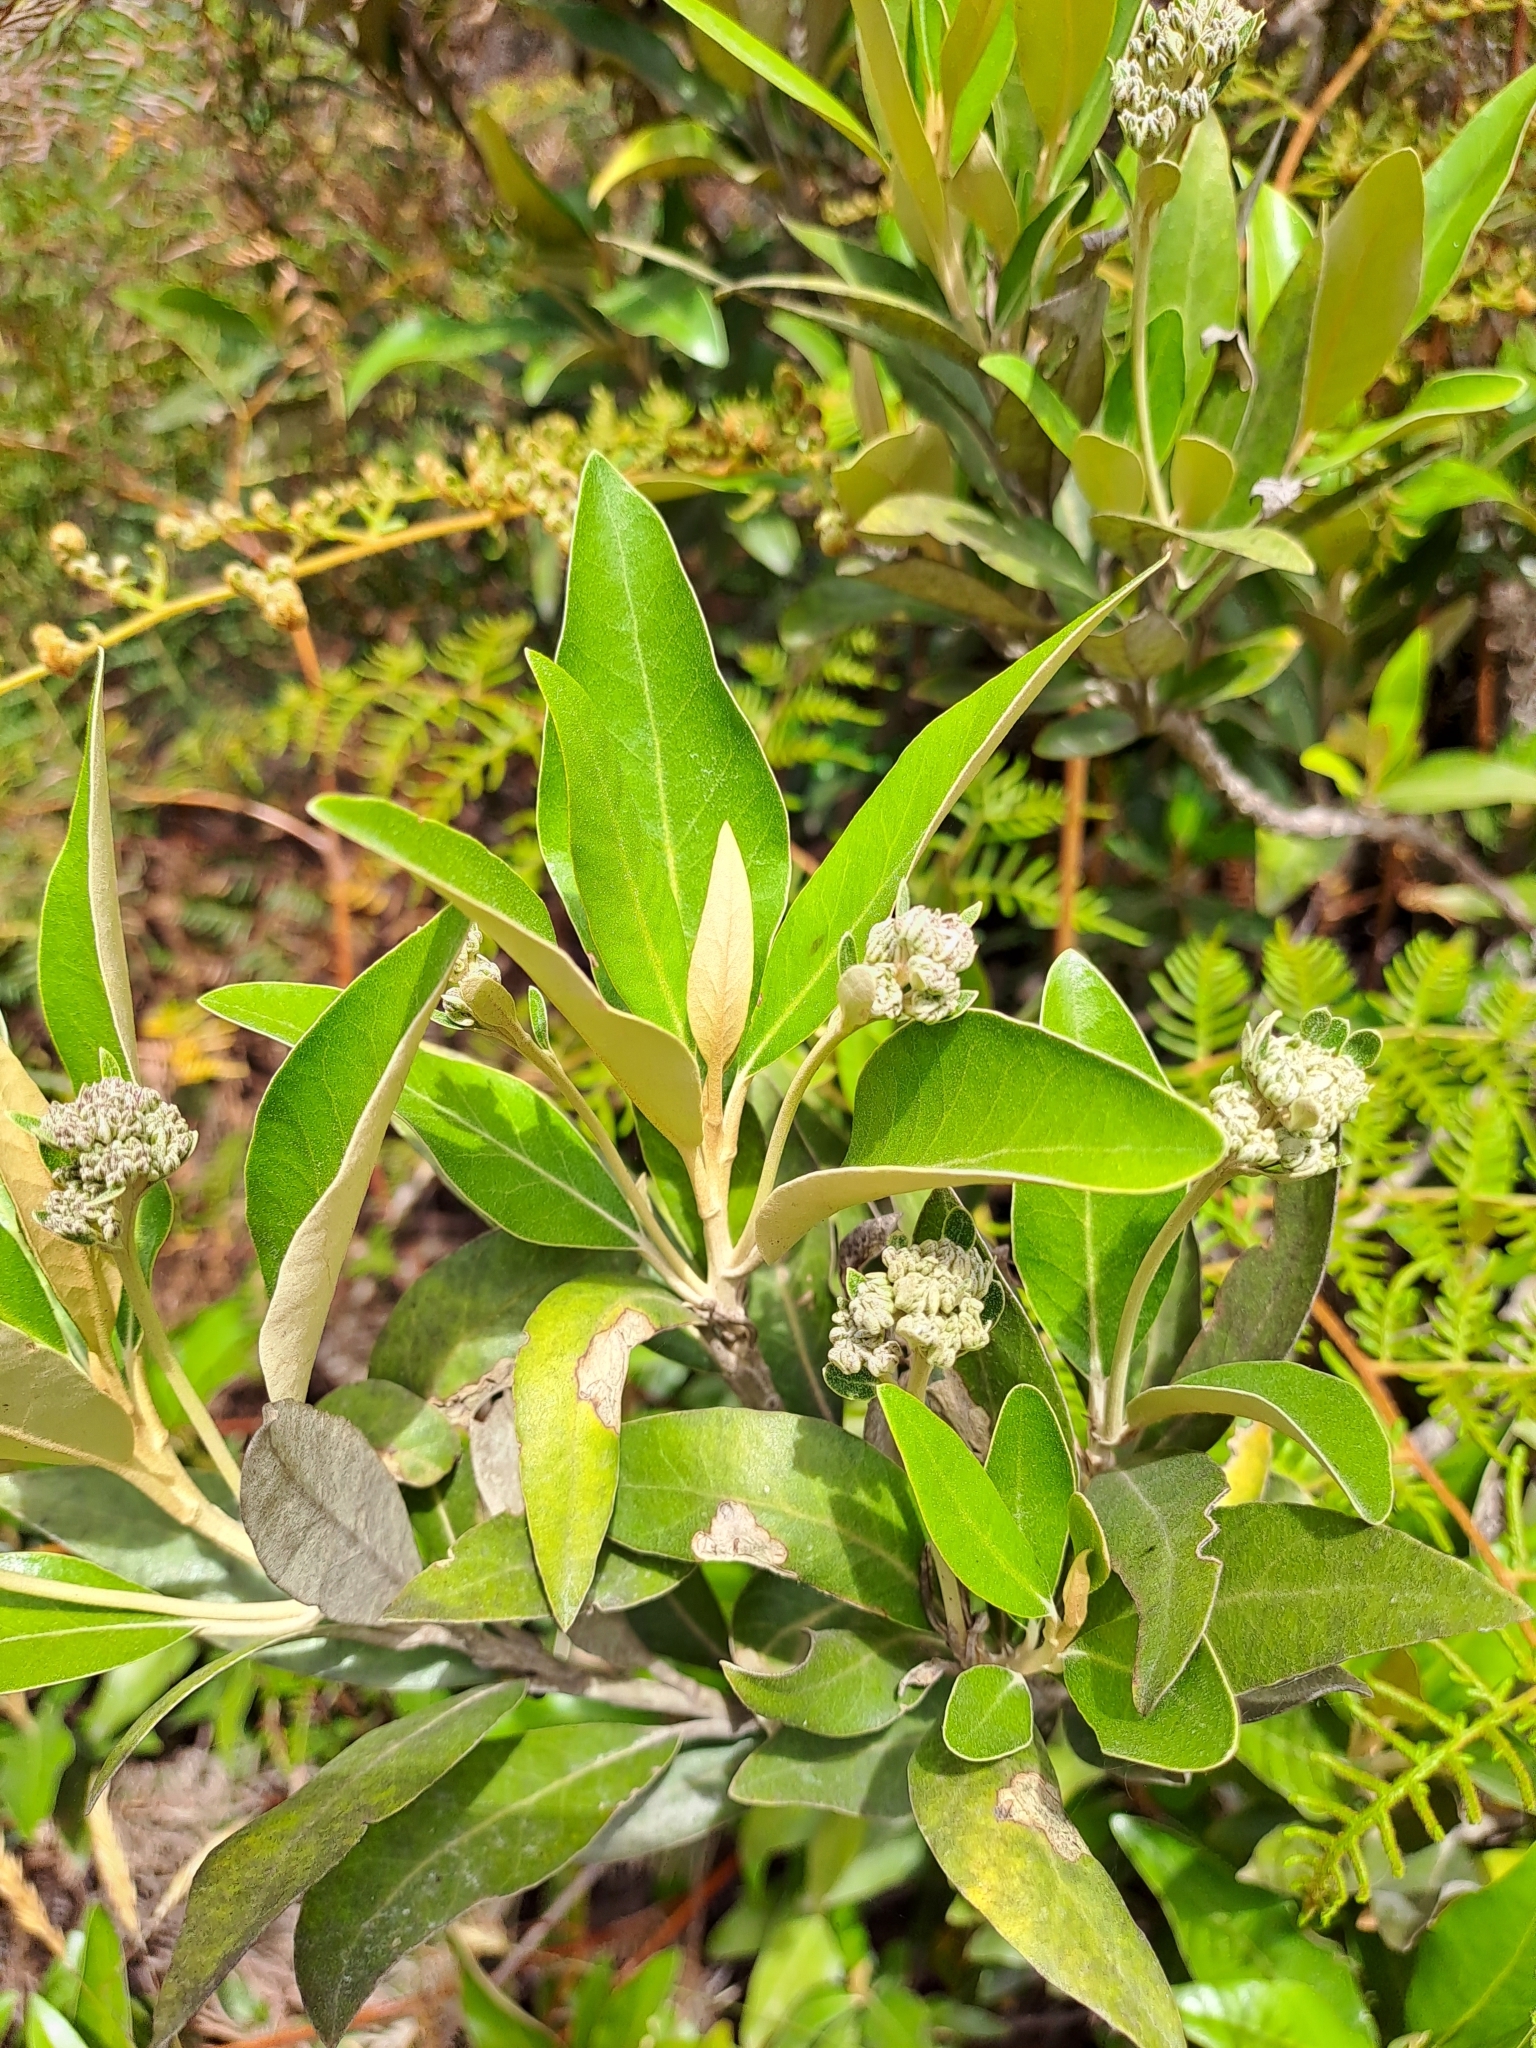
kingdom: Plantae
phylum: Tracheophyta
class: Magnoliopsida
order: Asterales
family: Asteraceae
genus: Olearia
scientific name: Olearia avicenniifolia
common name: Mangrove-leaf daisybush
